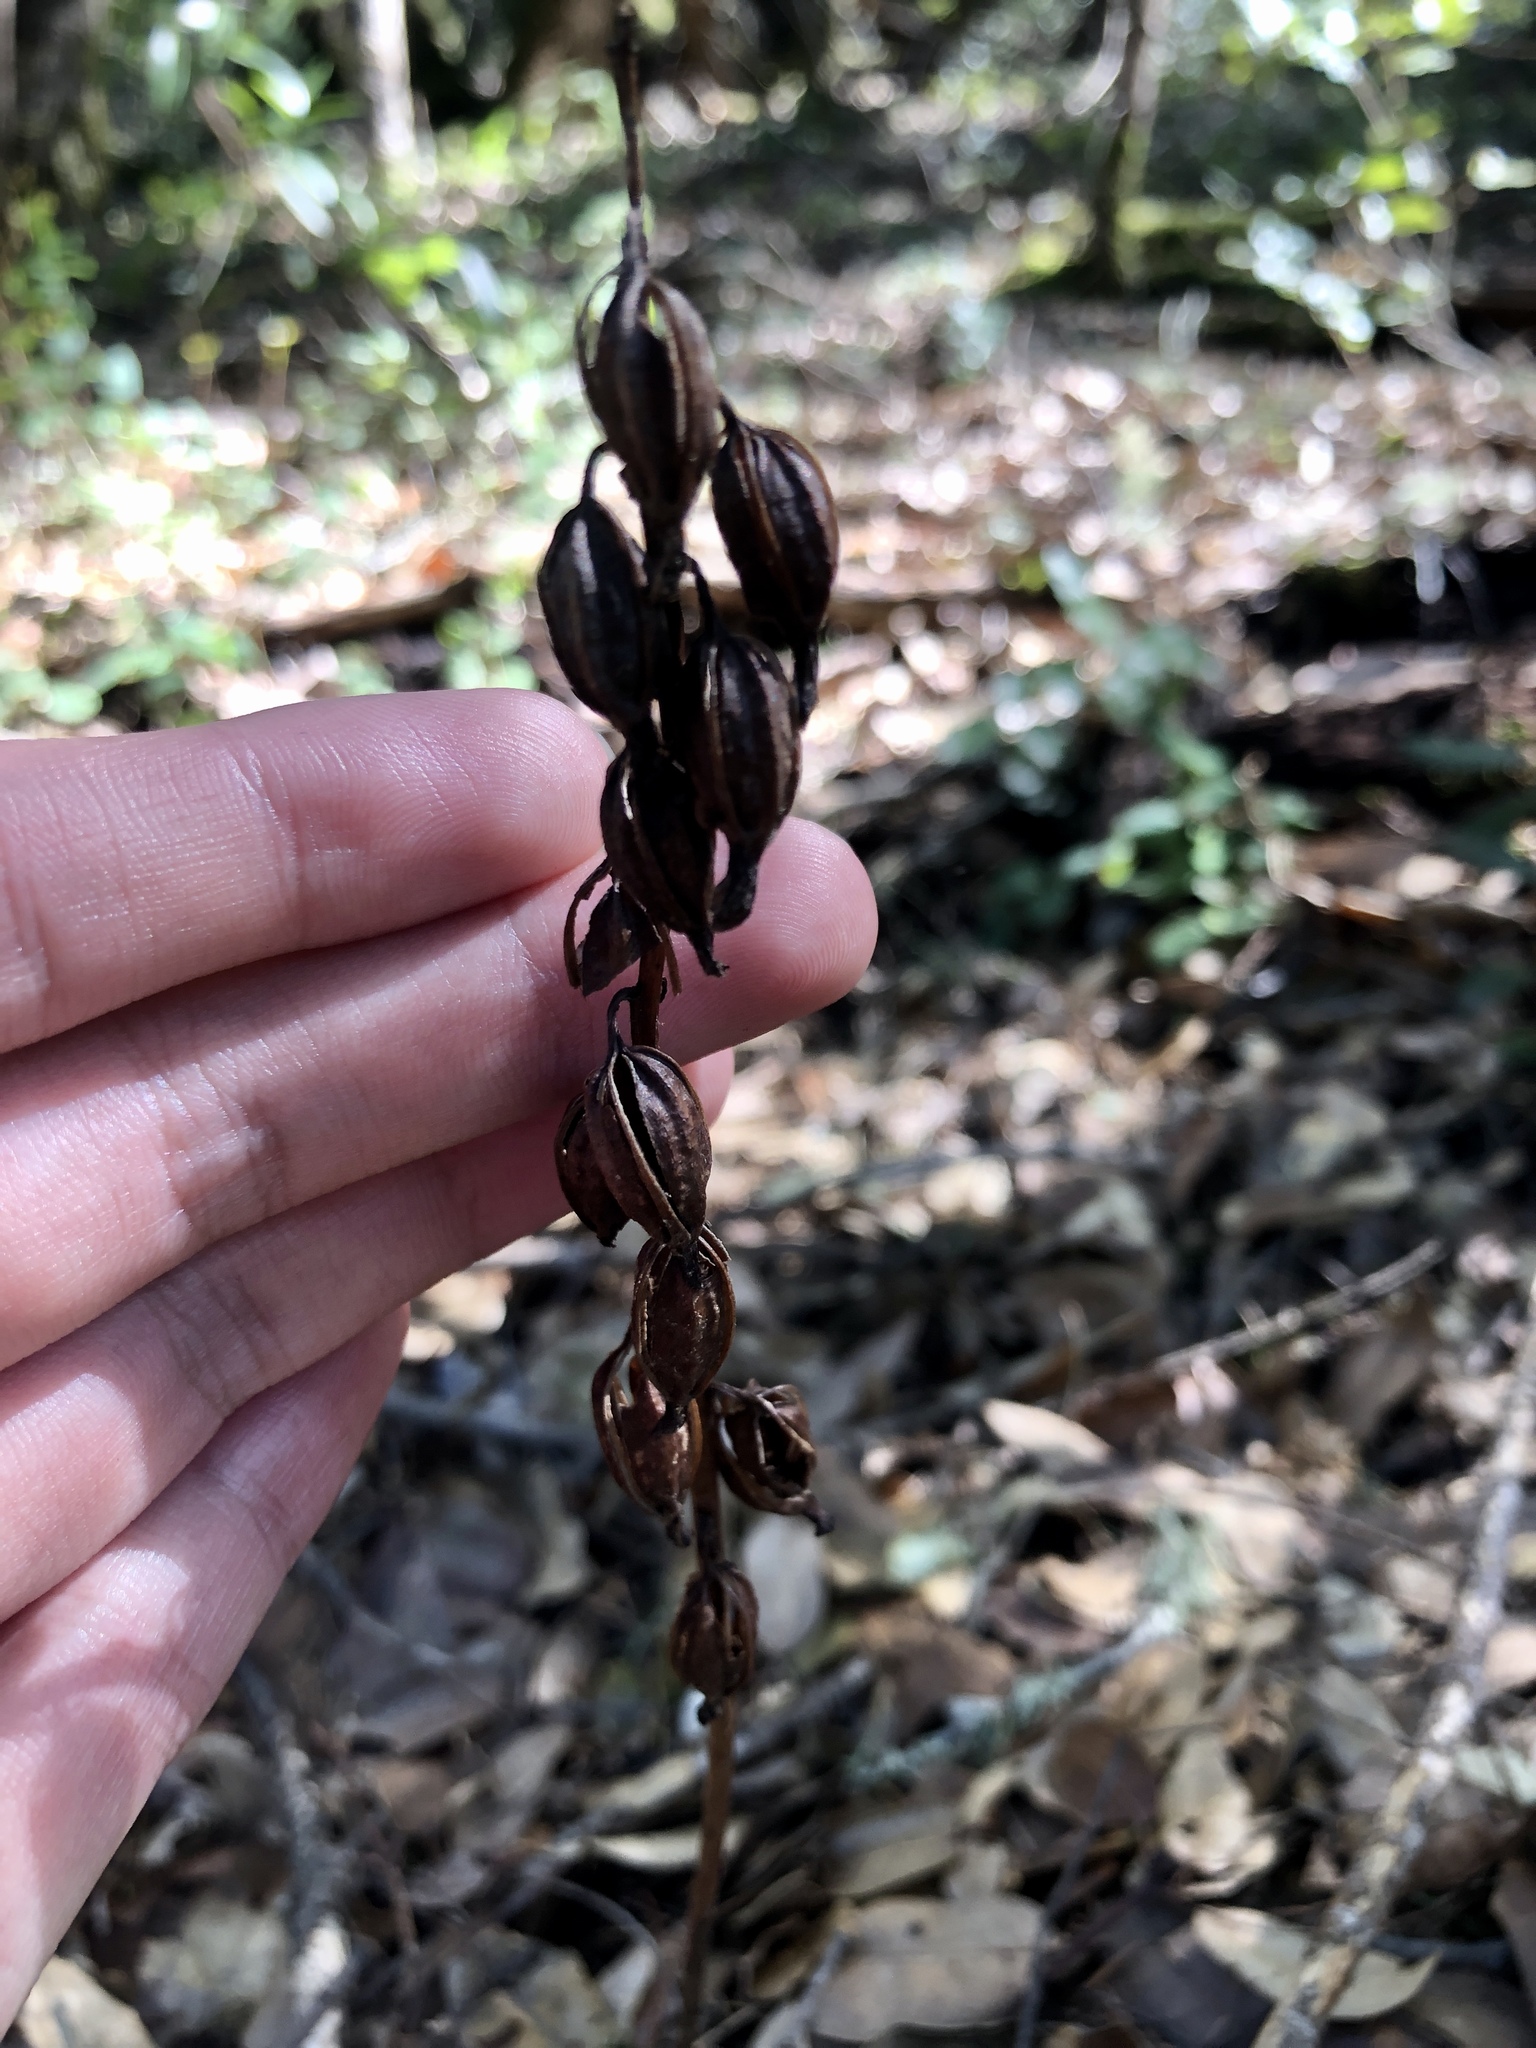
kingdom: Plantae
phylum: Tracheophyta
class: Liliopsida
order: Asparagales
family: Orchidaceae
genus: Corallorhiza
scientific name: Corallorhiza maculata
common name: Spotted coralroot
